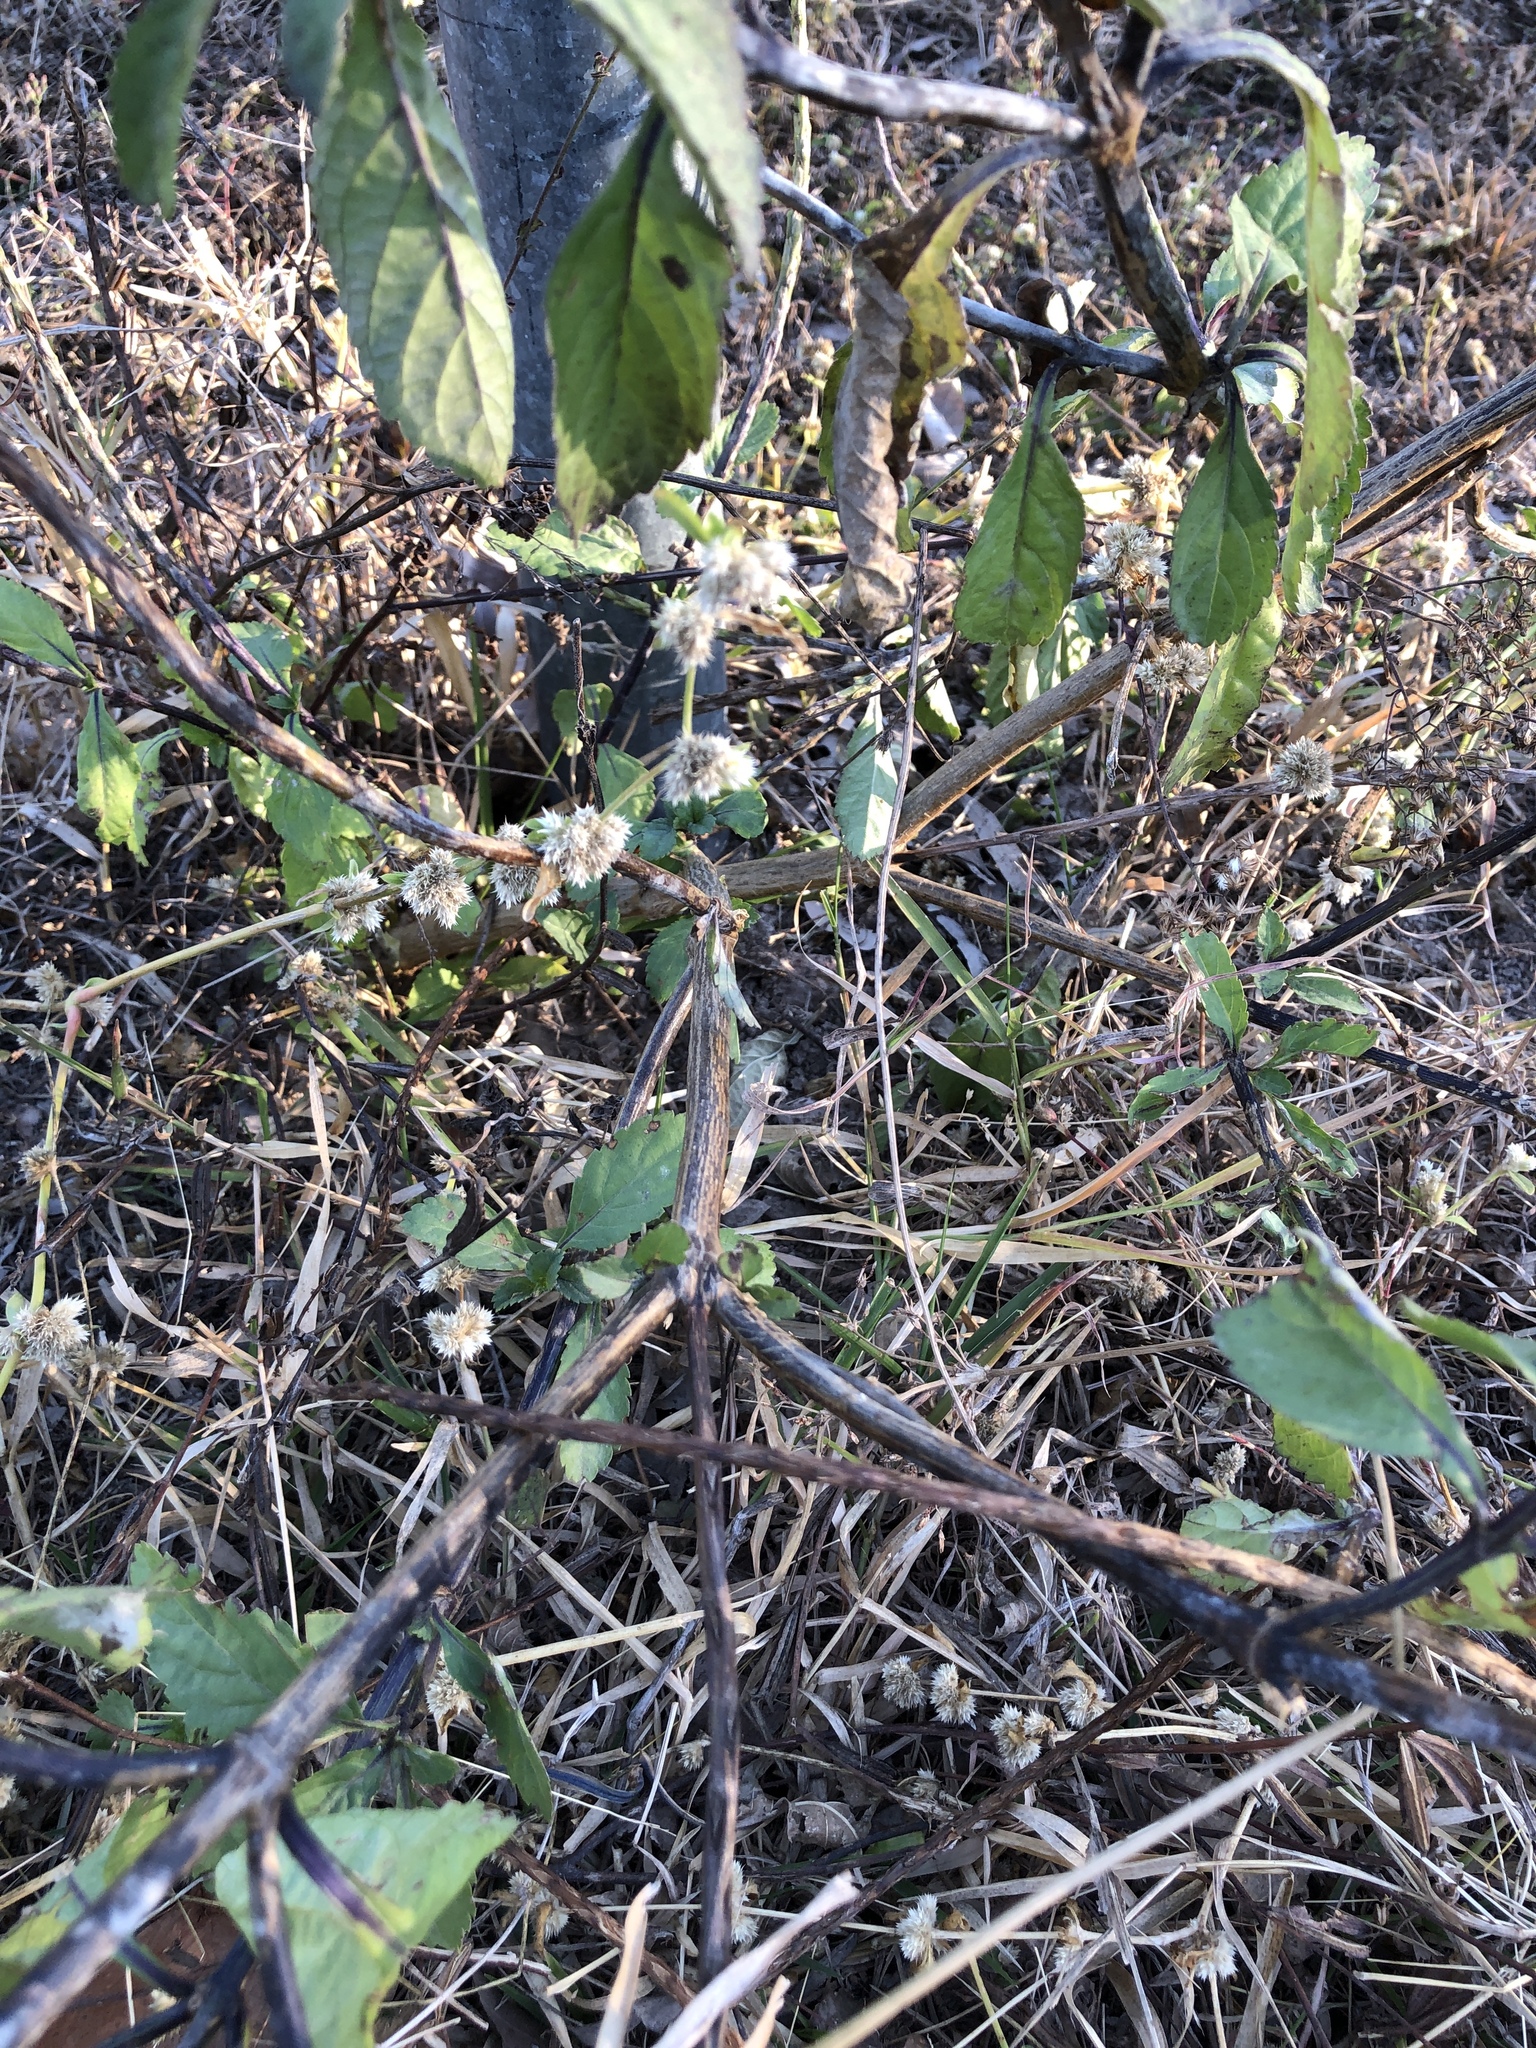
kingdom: Plantae
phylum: Tracheophyta
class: Magnoliopsida
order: Lamiales
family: Verbenaceae
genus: Stachytarpheta
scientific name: Stachytarpheta jamaicensis
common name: Light-blue snakeweed
